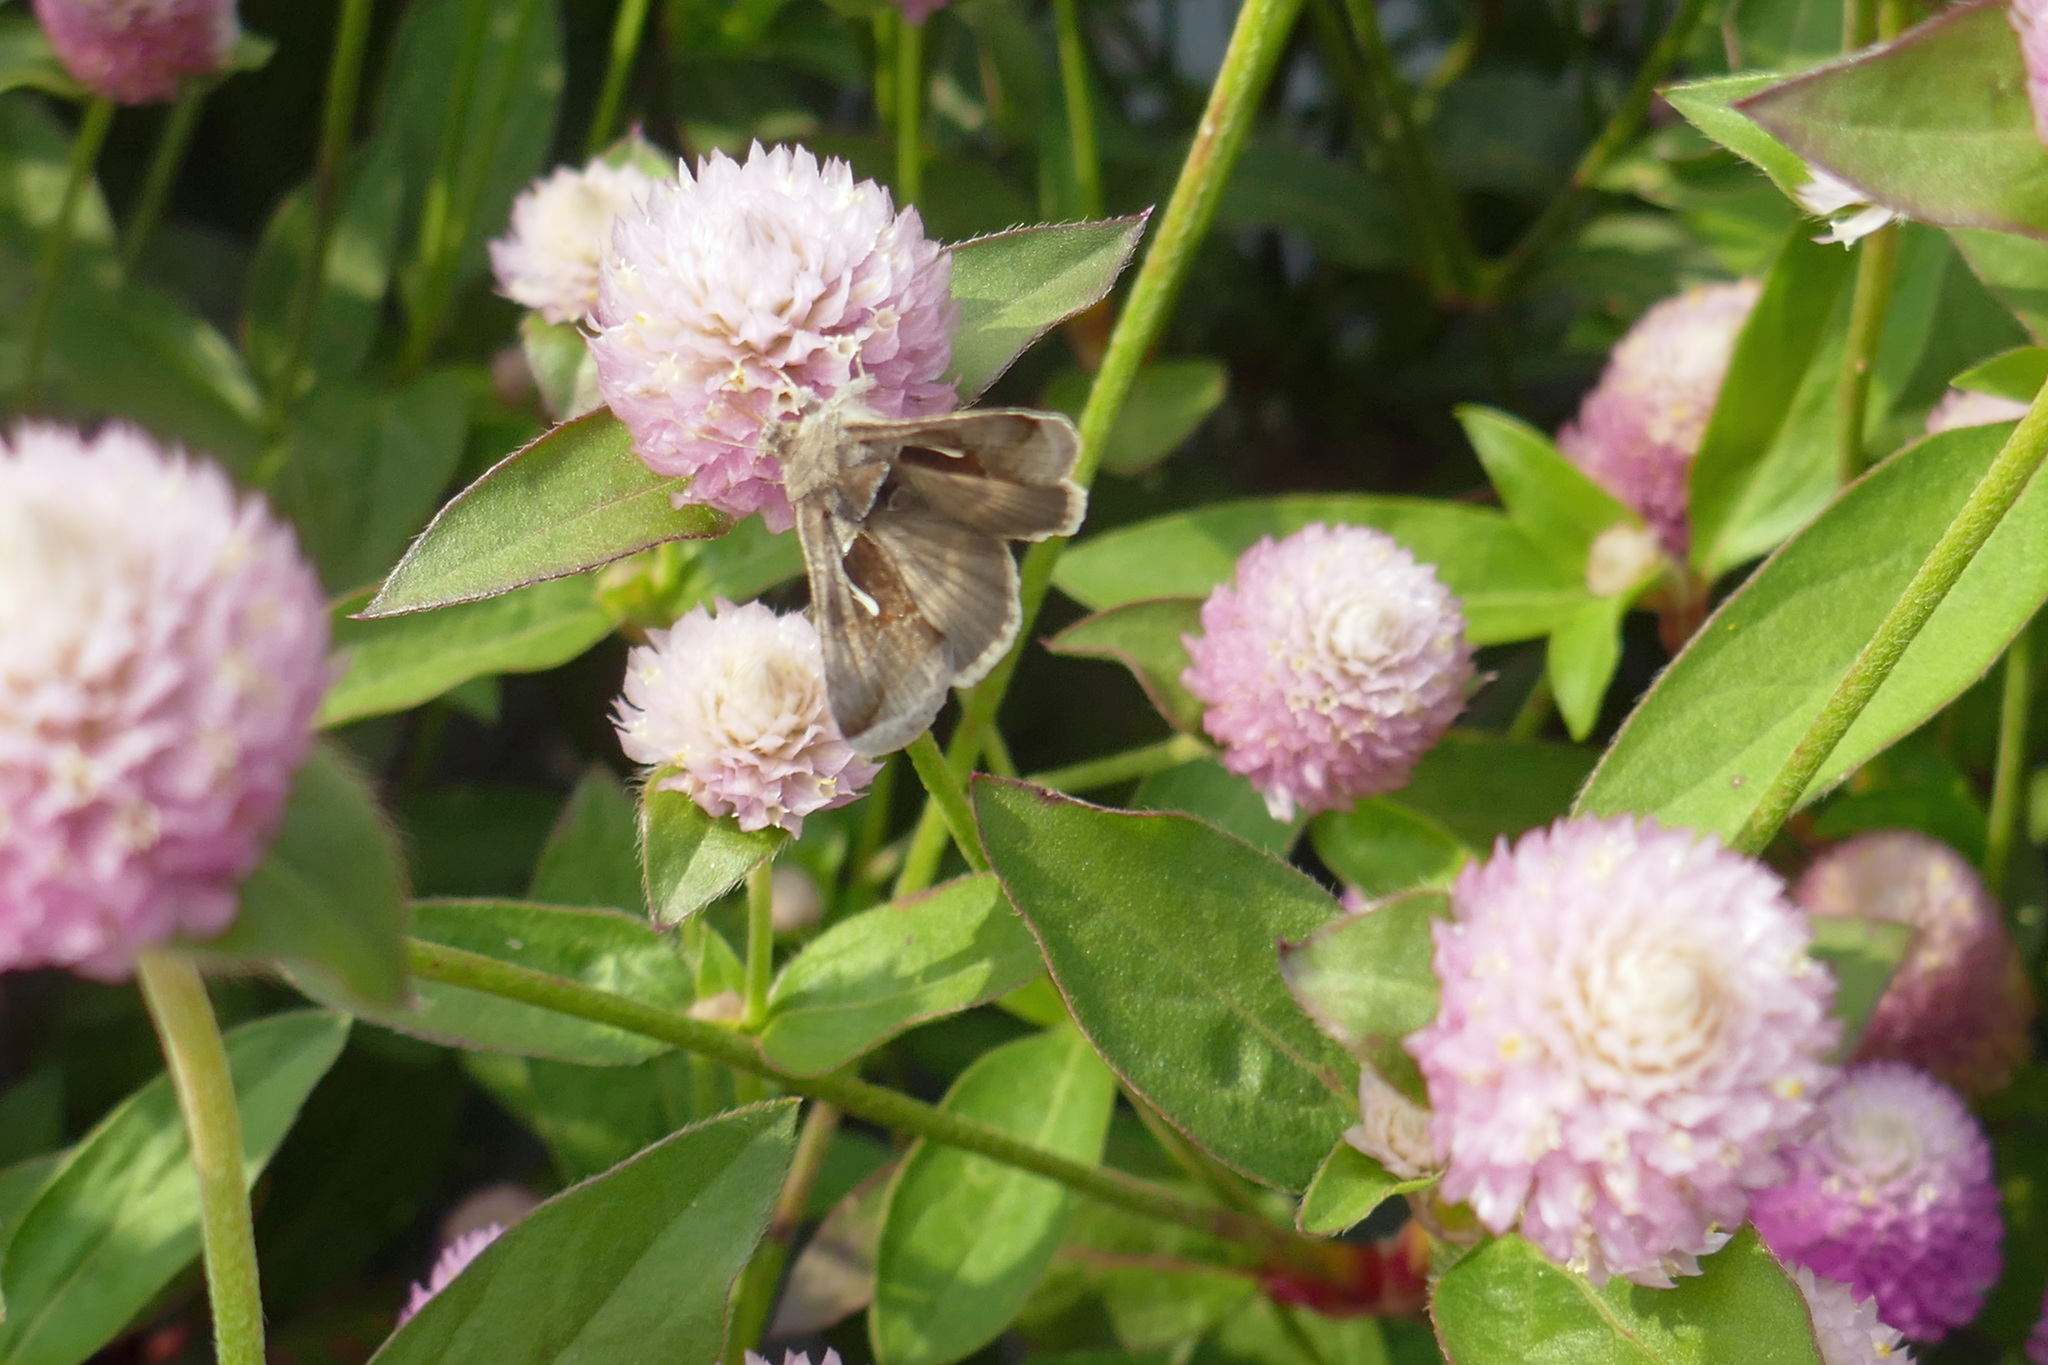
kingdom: Animalia
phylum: Arthropoda
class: Insecta
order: Lepidoptera
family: Noctuidae
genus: Anagrapha
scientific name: Anagrapha falcifera
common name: Celery looper
